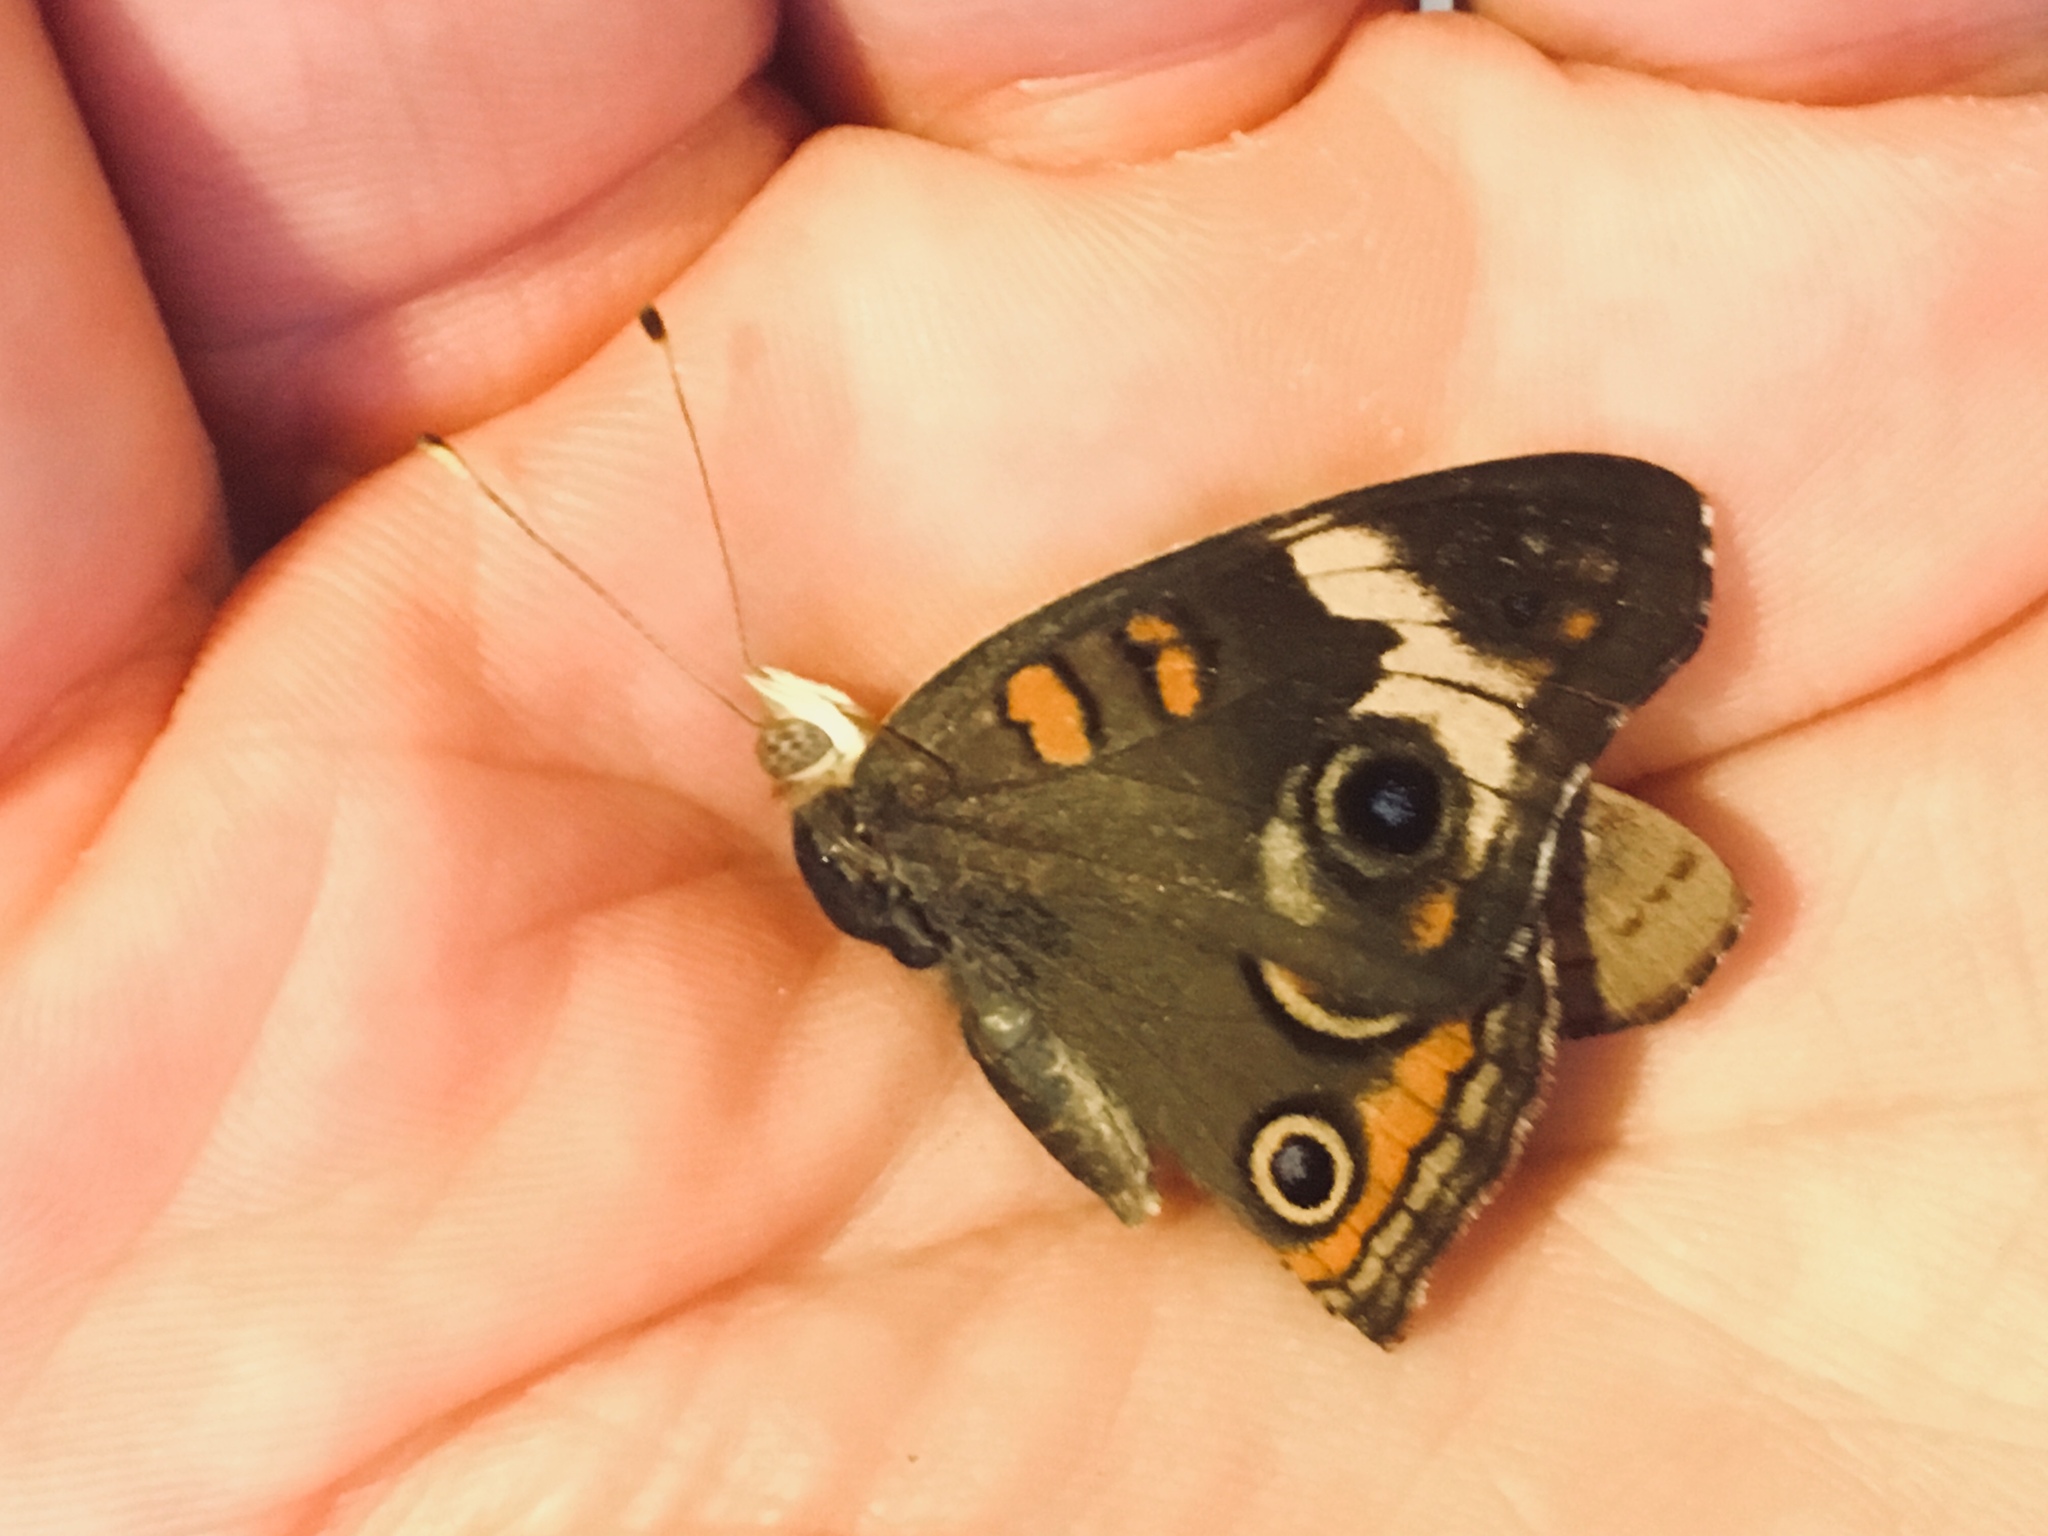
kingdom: Animalia
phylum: Arthropoda
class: Insecta
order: Lepidoptera
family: Nymphalidae
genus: Junonia
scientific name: Junonia coenia
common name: Common buckeye
